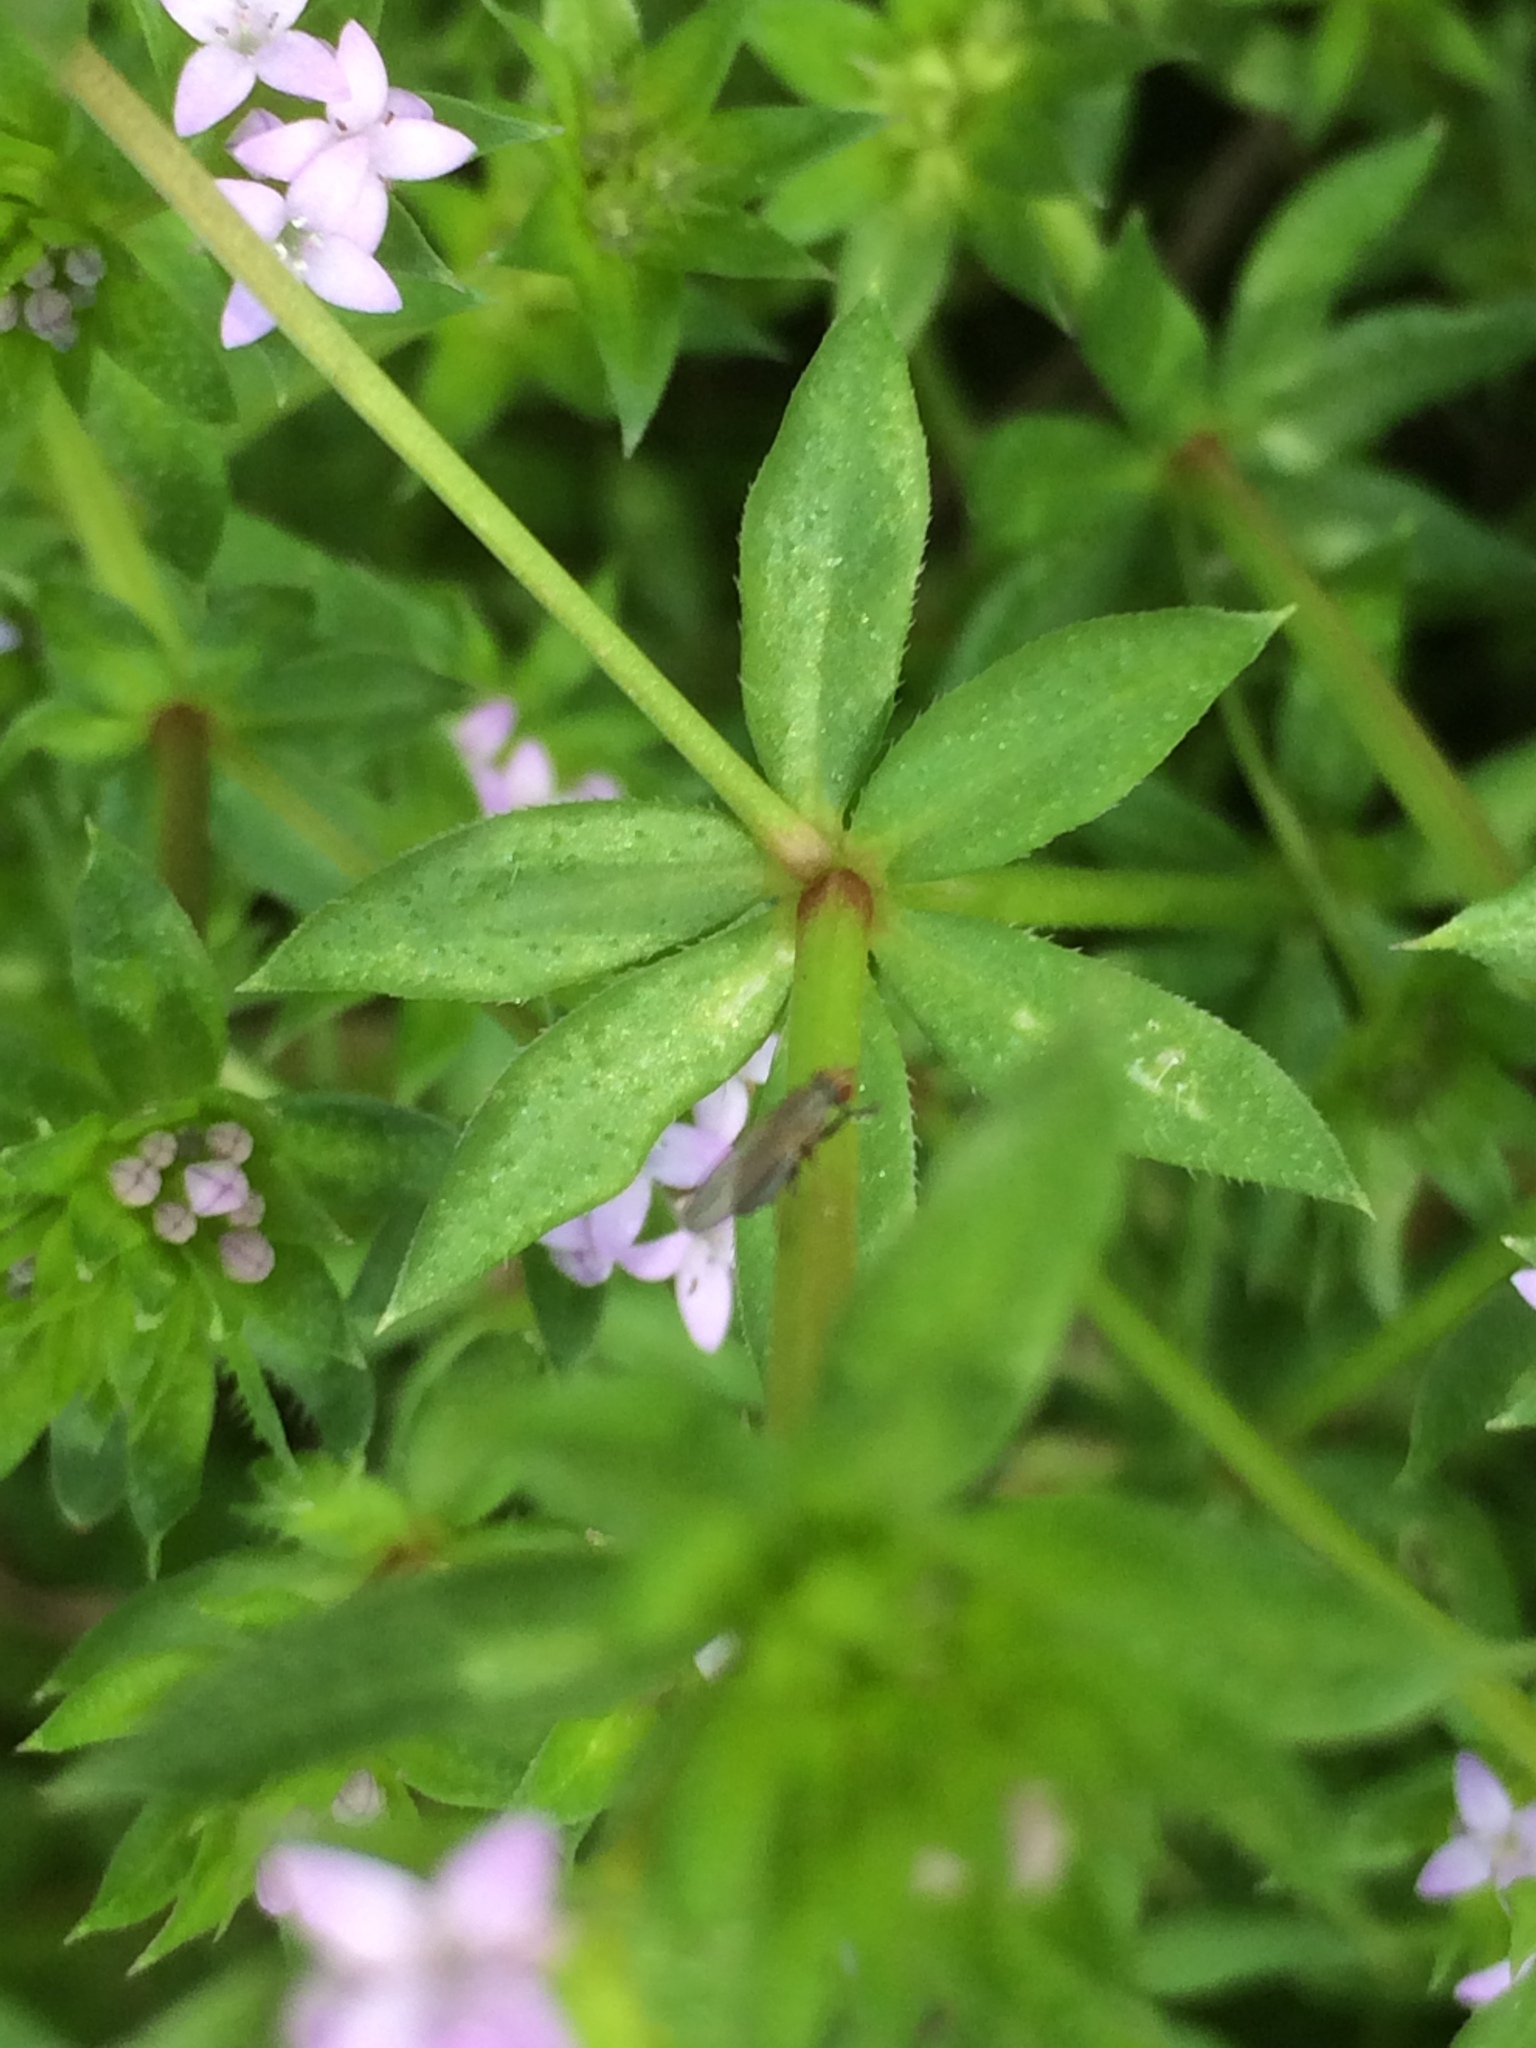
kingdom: Plantae
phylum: Tracheophyta
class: Magnoliopsida
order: Gentianales
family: Rubiaceae
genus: Sherardia
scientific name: Sherardia arvensis
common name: Field madder
